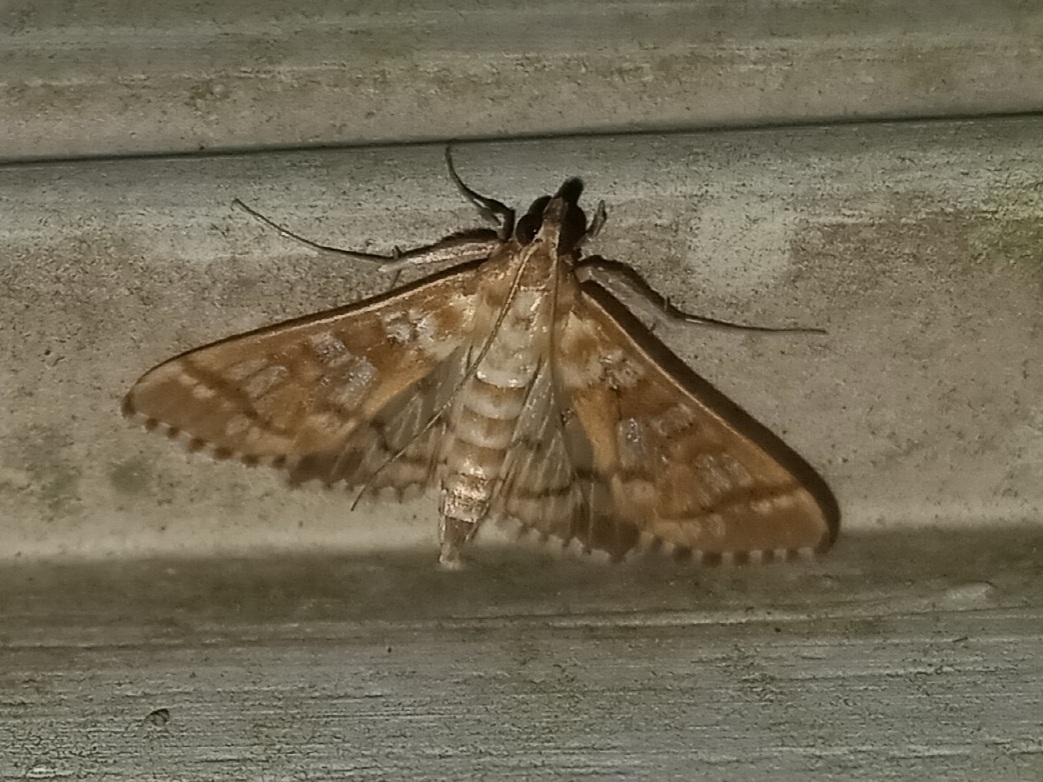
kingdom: Animalia
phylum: Arthropoda
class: Insecta
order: Lepidoptera
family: Crambidae
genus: Epipagis
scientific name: Epipagis fenestralis
